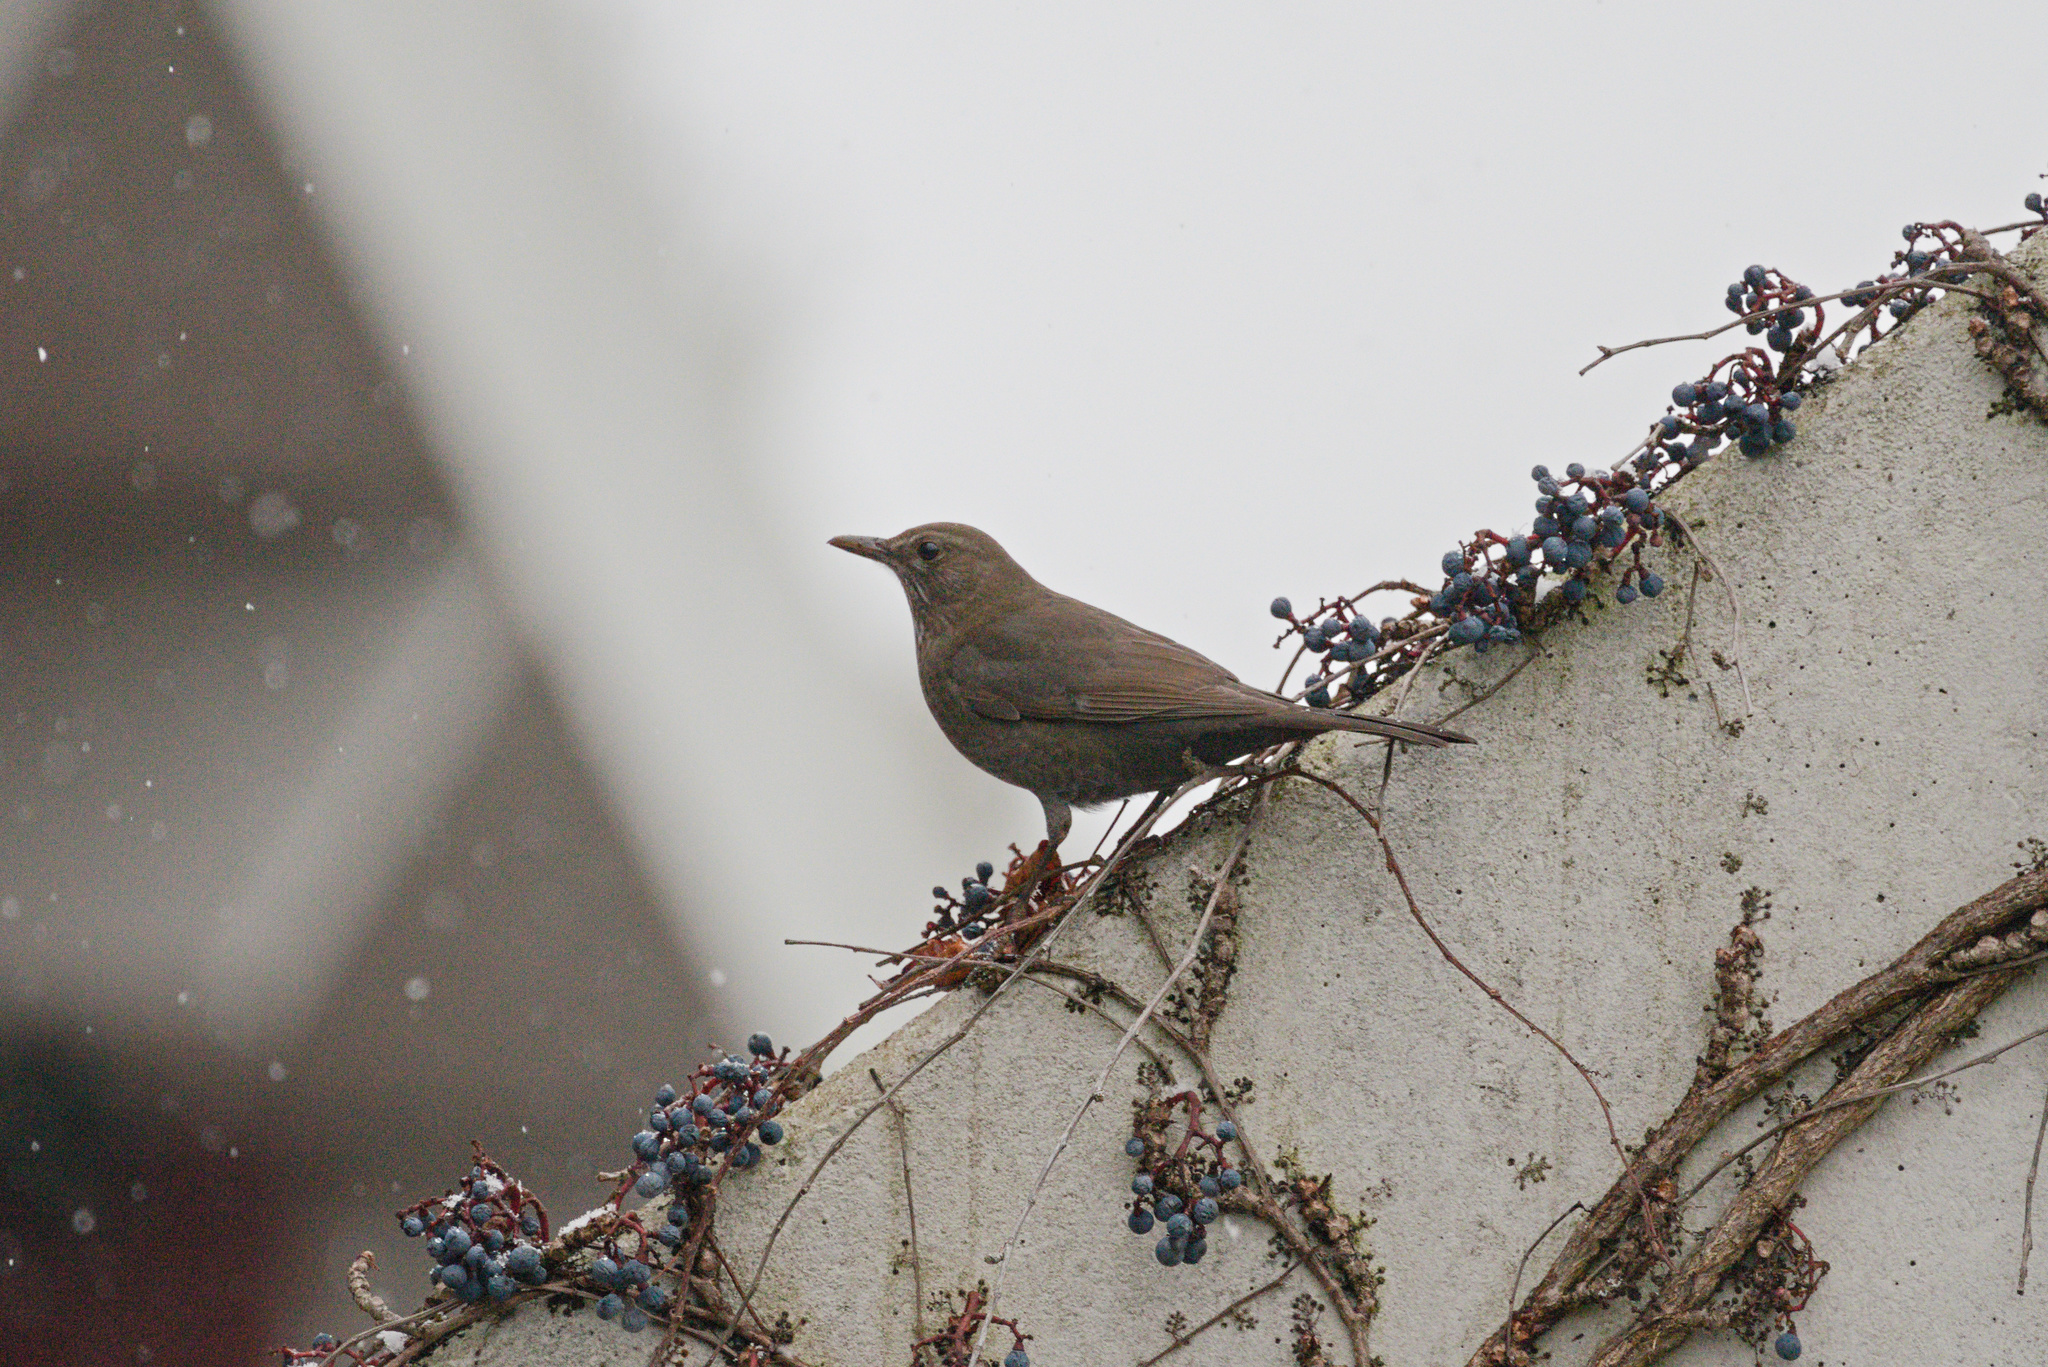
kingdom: Animalia
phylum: Chordata
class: Aves
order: Passeriformes
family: Turdidae
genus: Turdus
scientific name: Turdus merula
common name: Common blackbird
